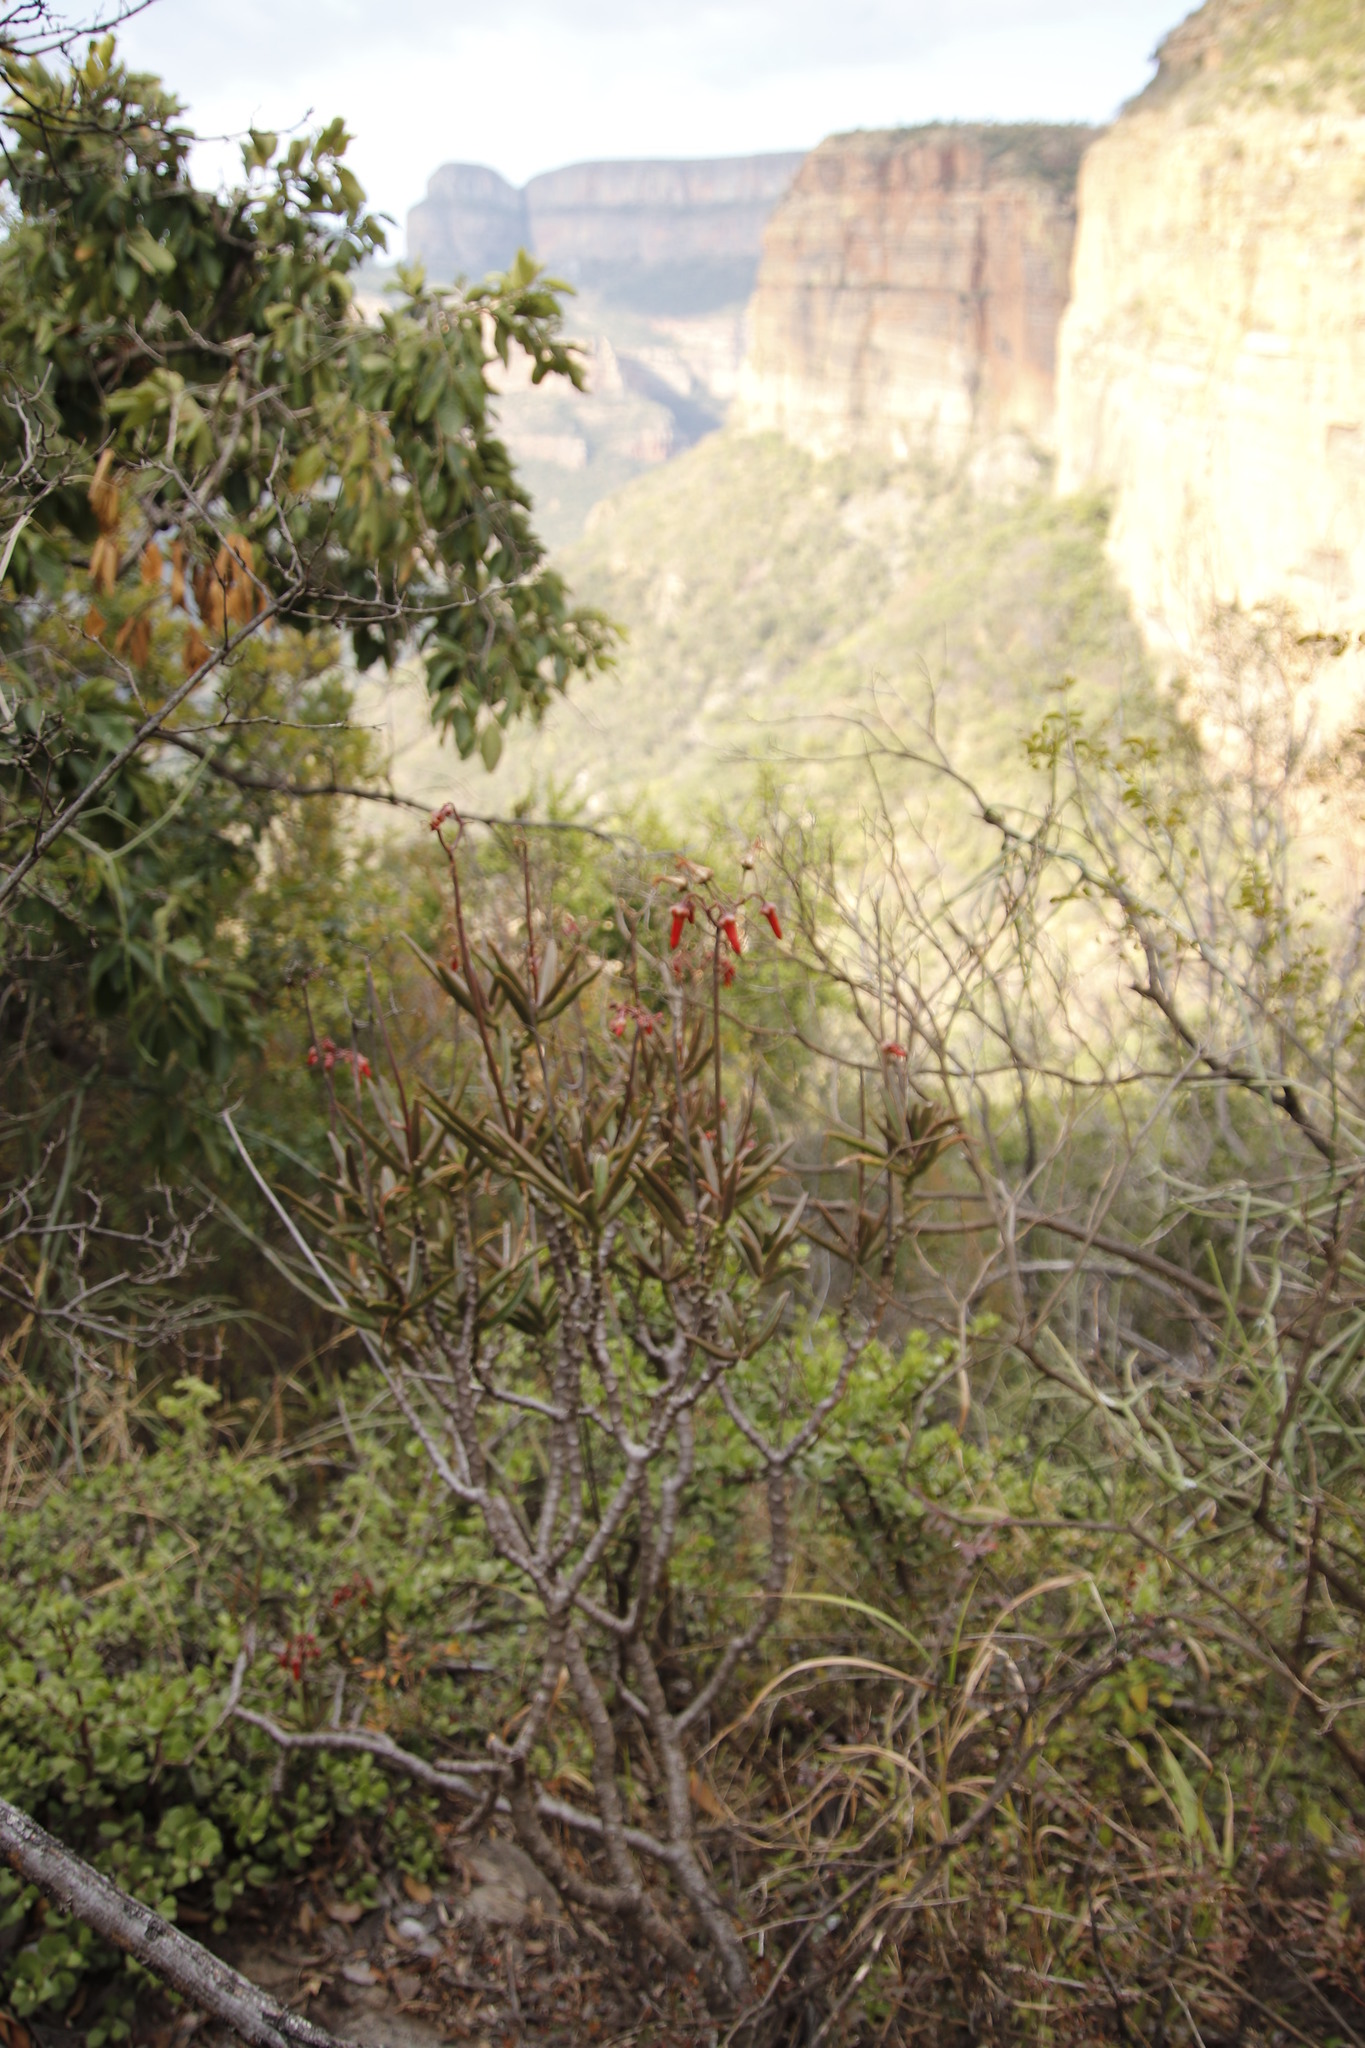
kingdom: Plantae
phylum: Tracheophyta
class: Magnoliopsida
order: Saxifragales
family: Crassulaceae
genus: Cotyledon
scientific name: Cotyledon barbeyi
